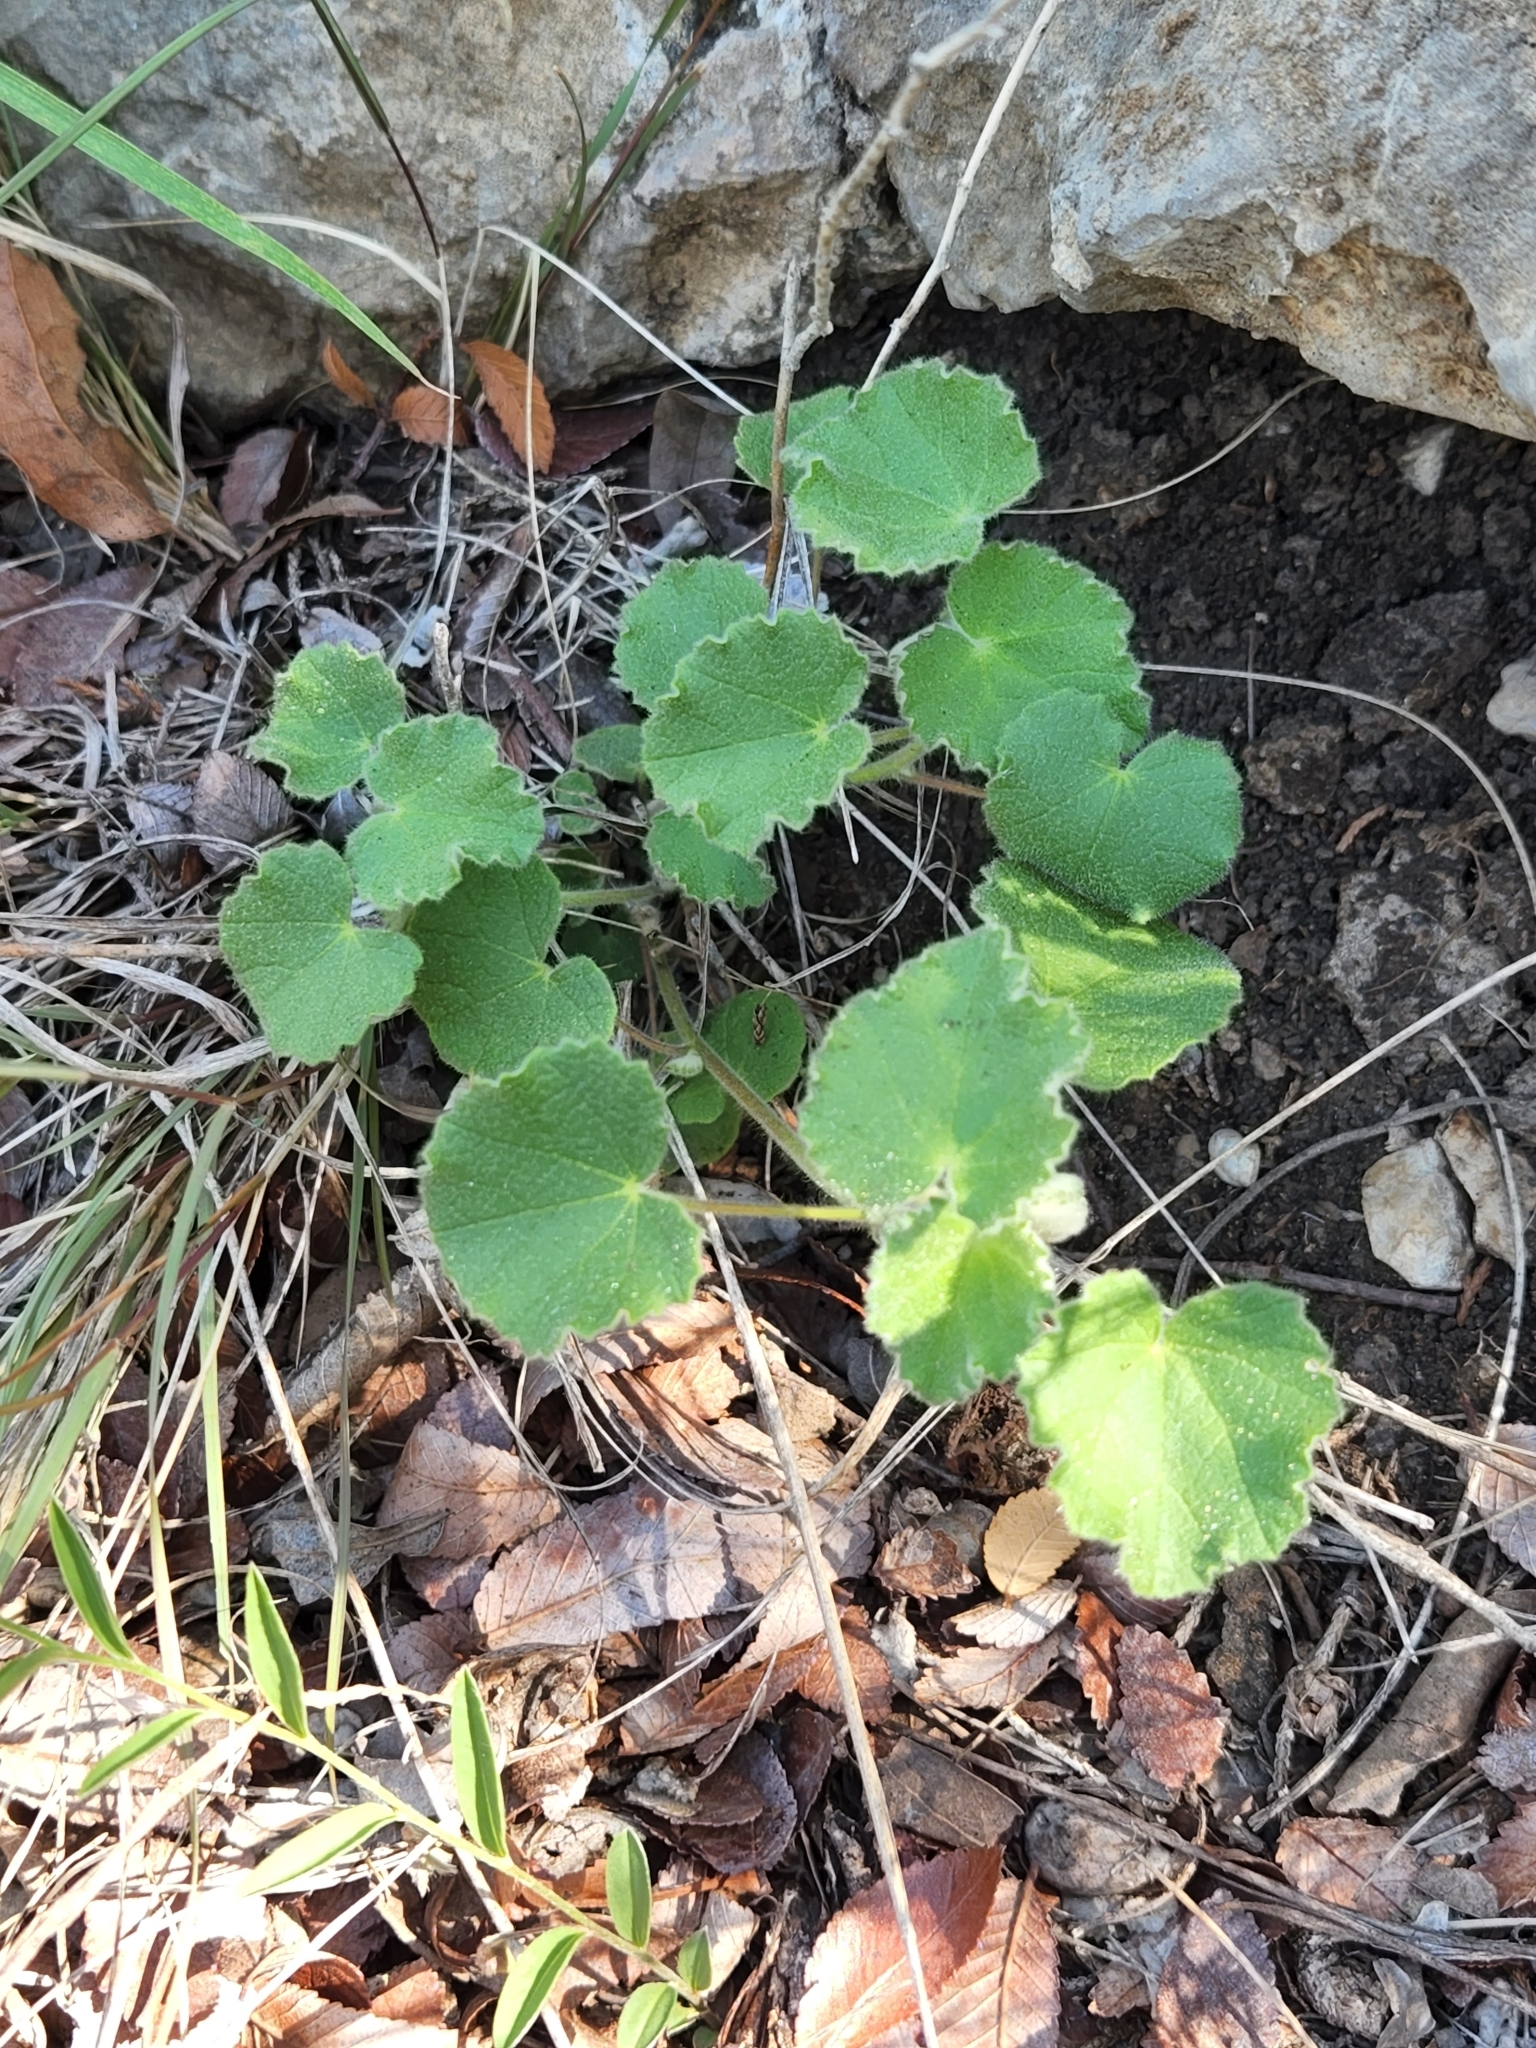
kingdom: Plantae
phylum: Tracheophyta
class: Magnoliopsida
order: Malvales
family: Malvaceae
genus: Abutilon
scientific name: Abutilon wrightii
